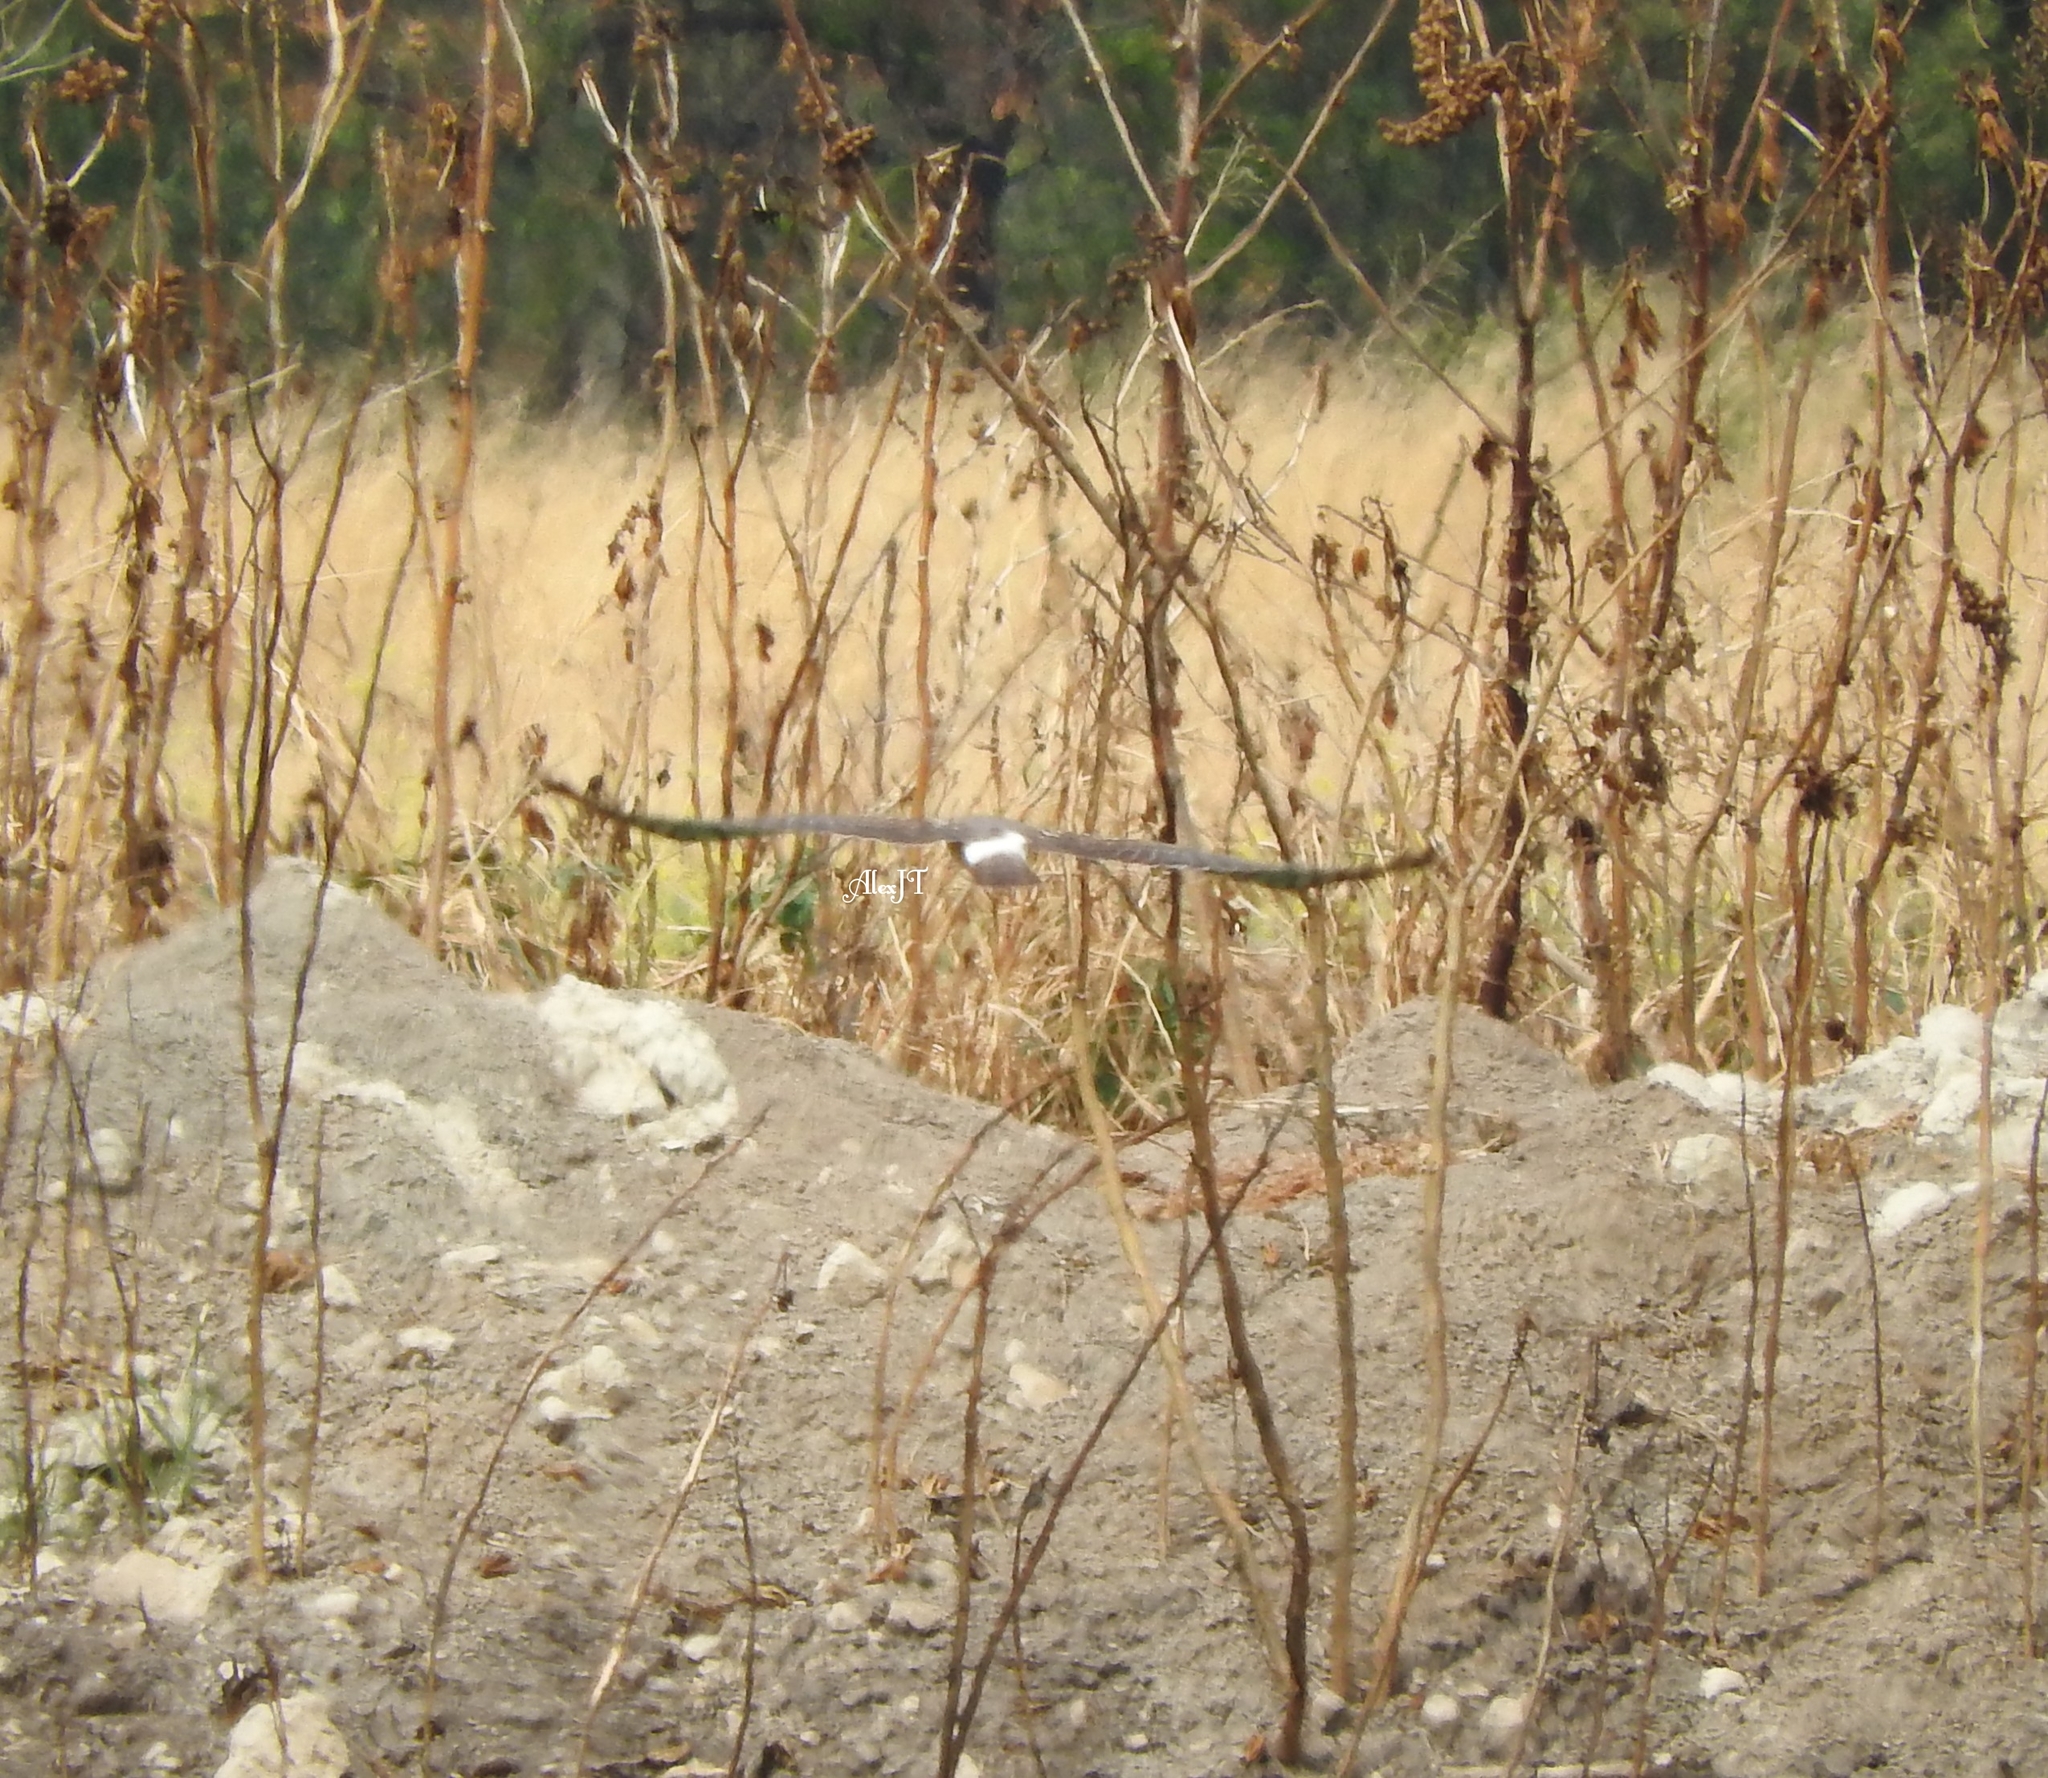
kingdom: Animalia
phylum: Chordata
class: Aves
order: Accipitriformes
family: Accipitridae
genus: Circus
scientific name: Circus cyaneus
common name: Hen harrier
